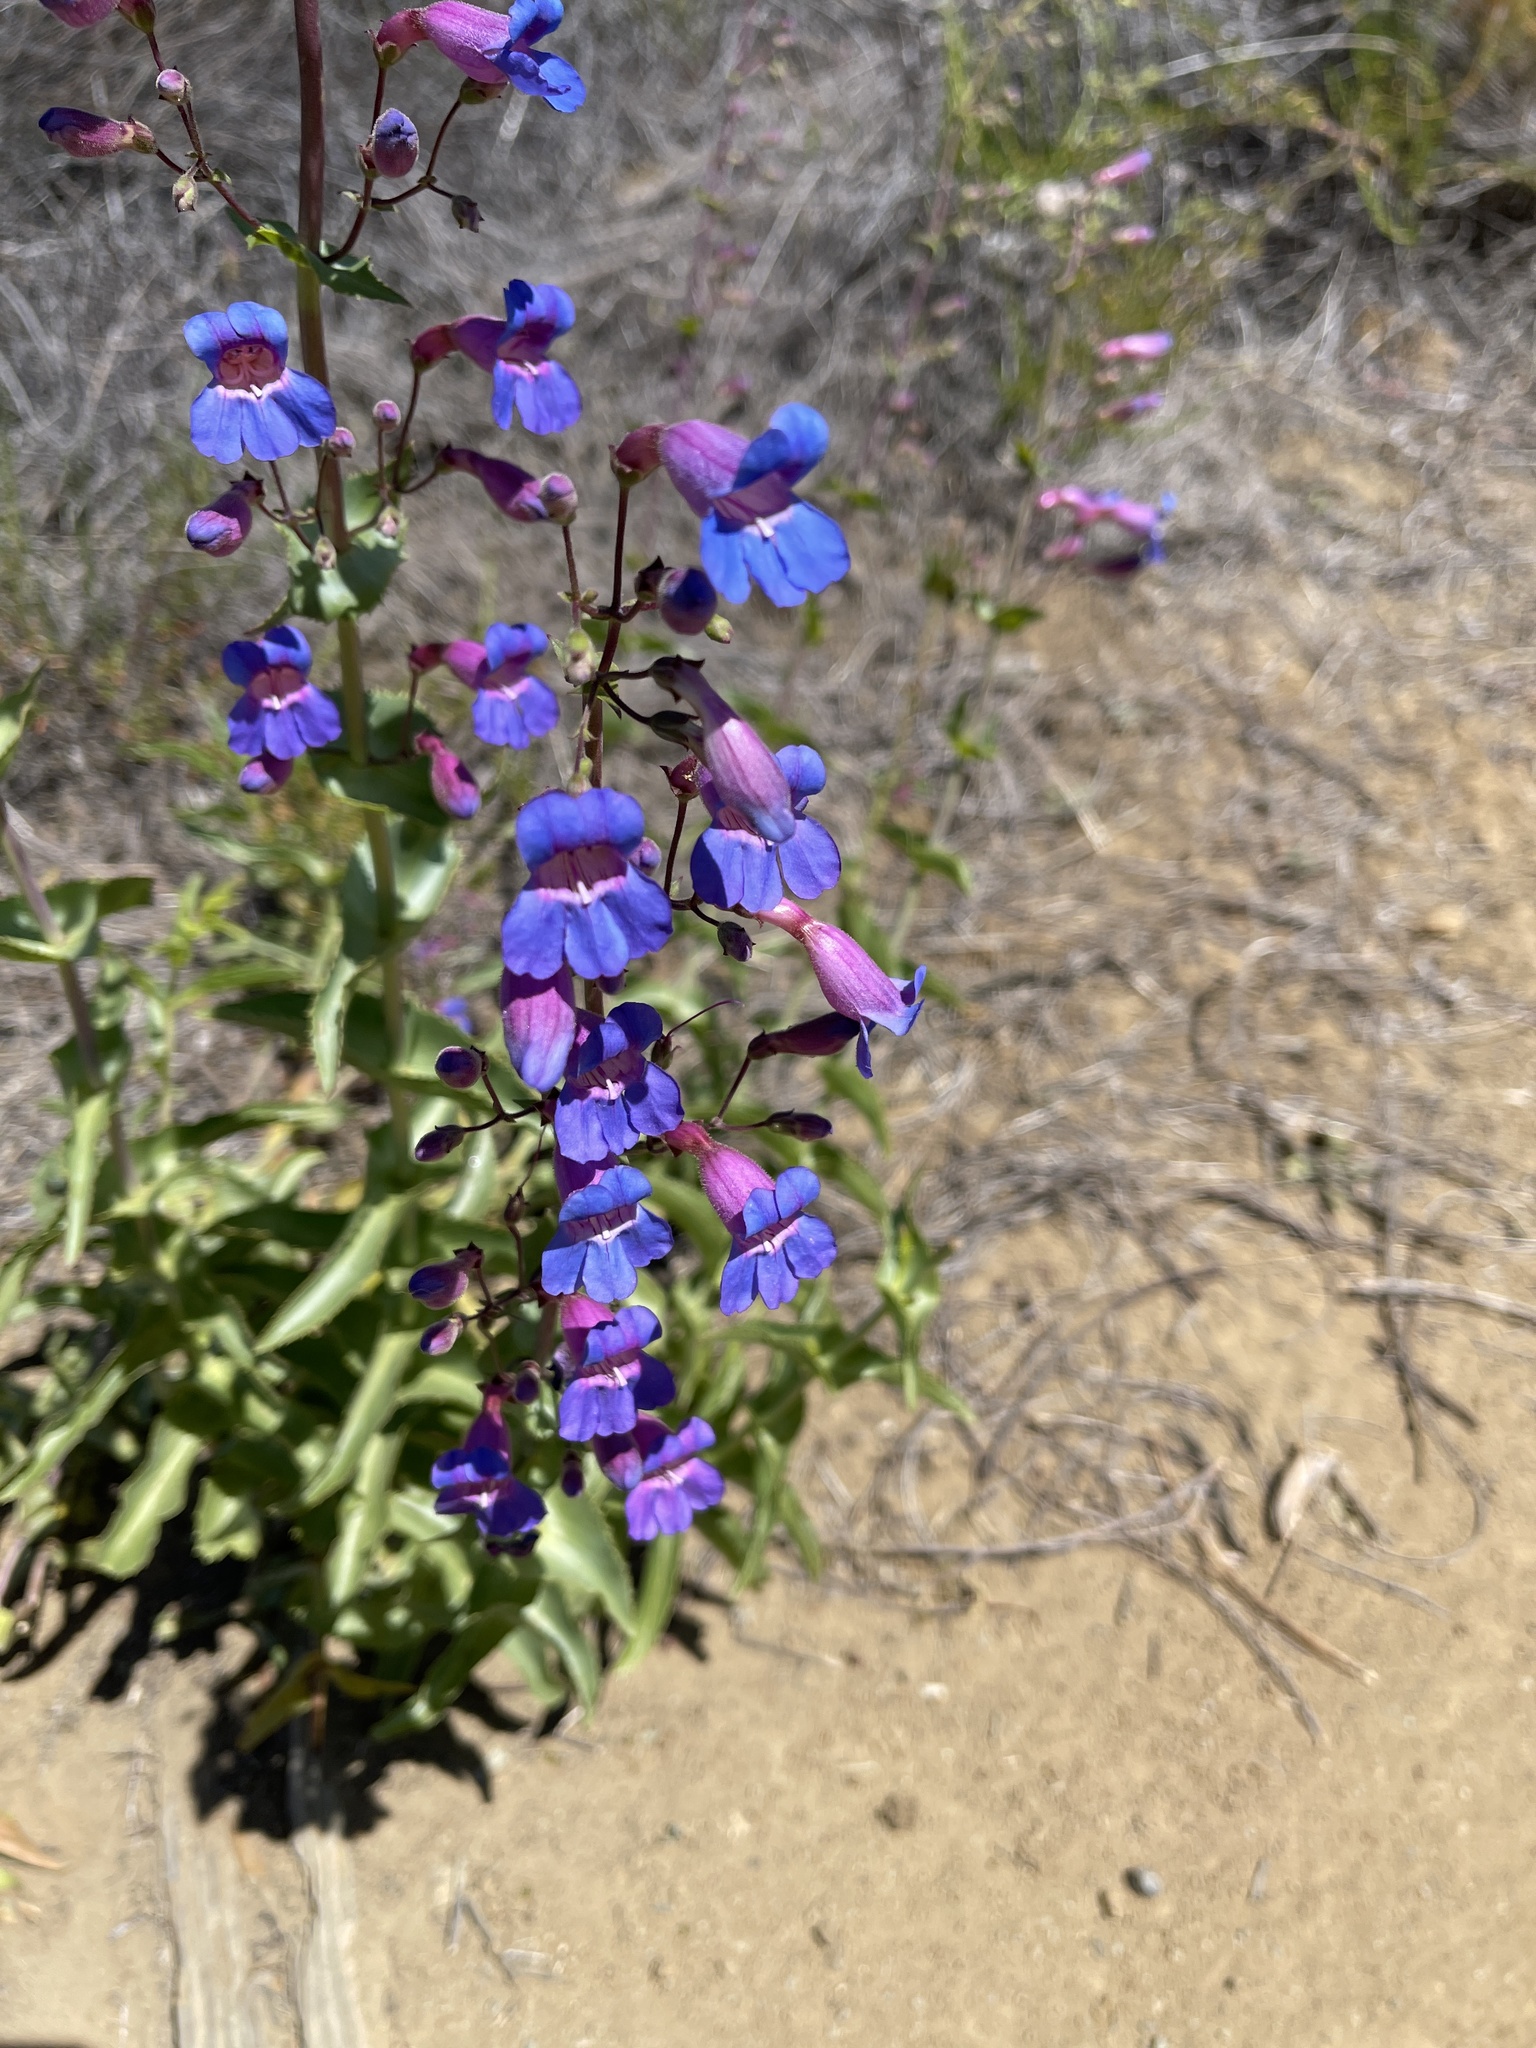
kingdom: Plantae
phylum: Tracheophyta
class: Magnoliopsida
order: Lamiales
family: Plantaginaceae
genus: Penstemon
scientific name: Penstemon spectabilis
